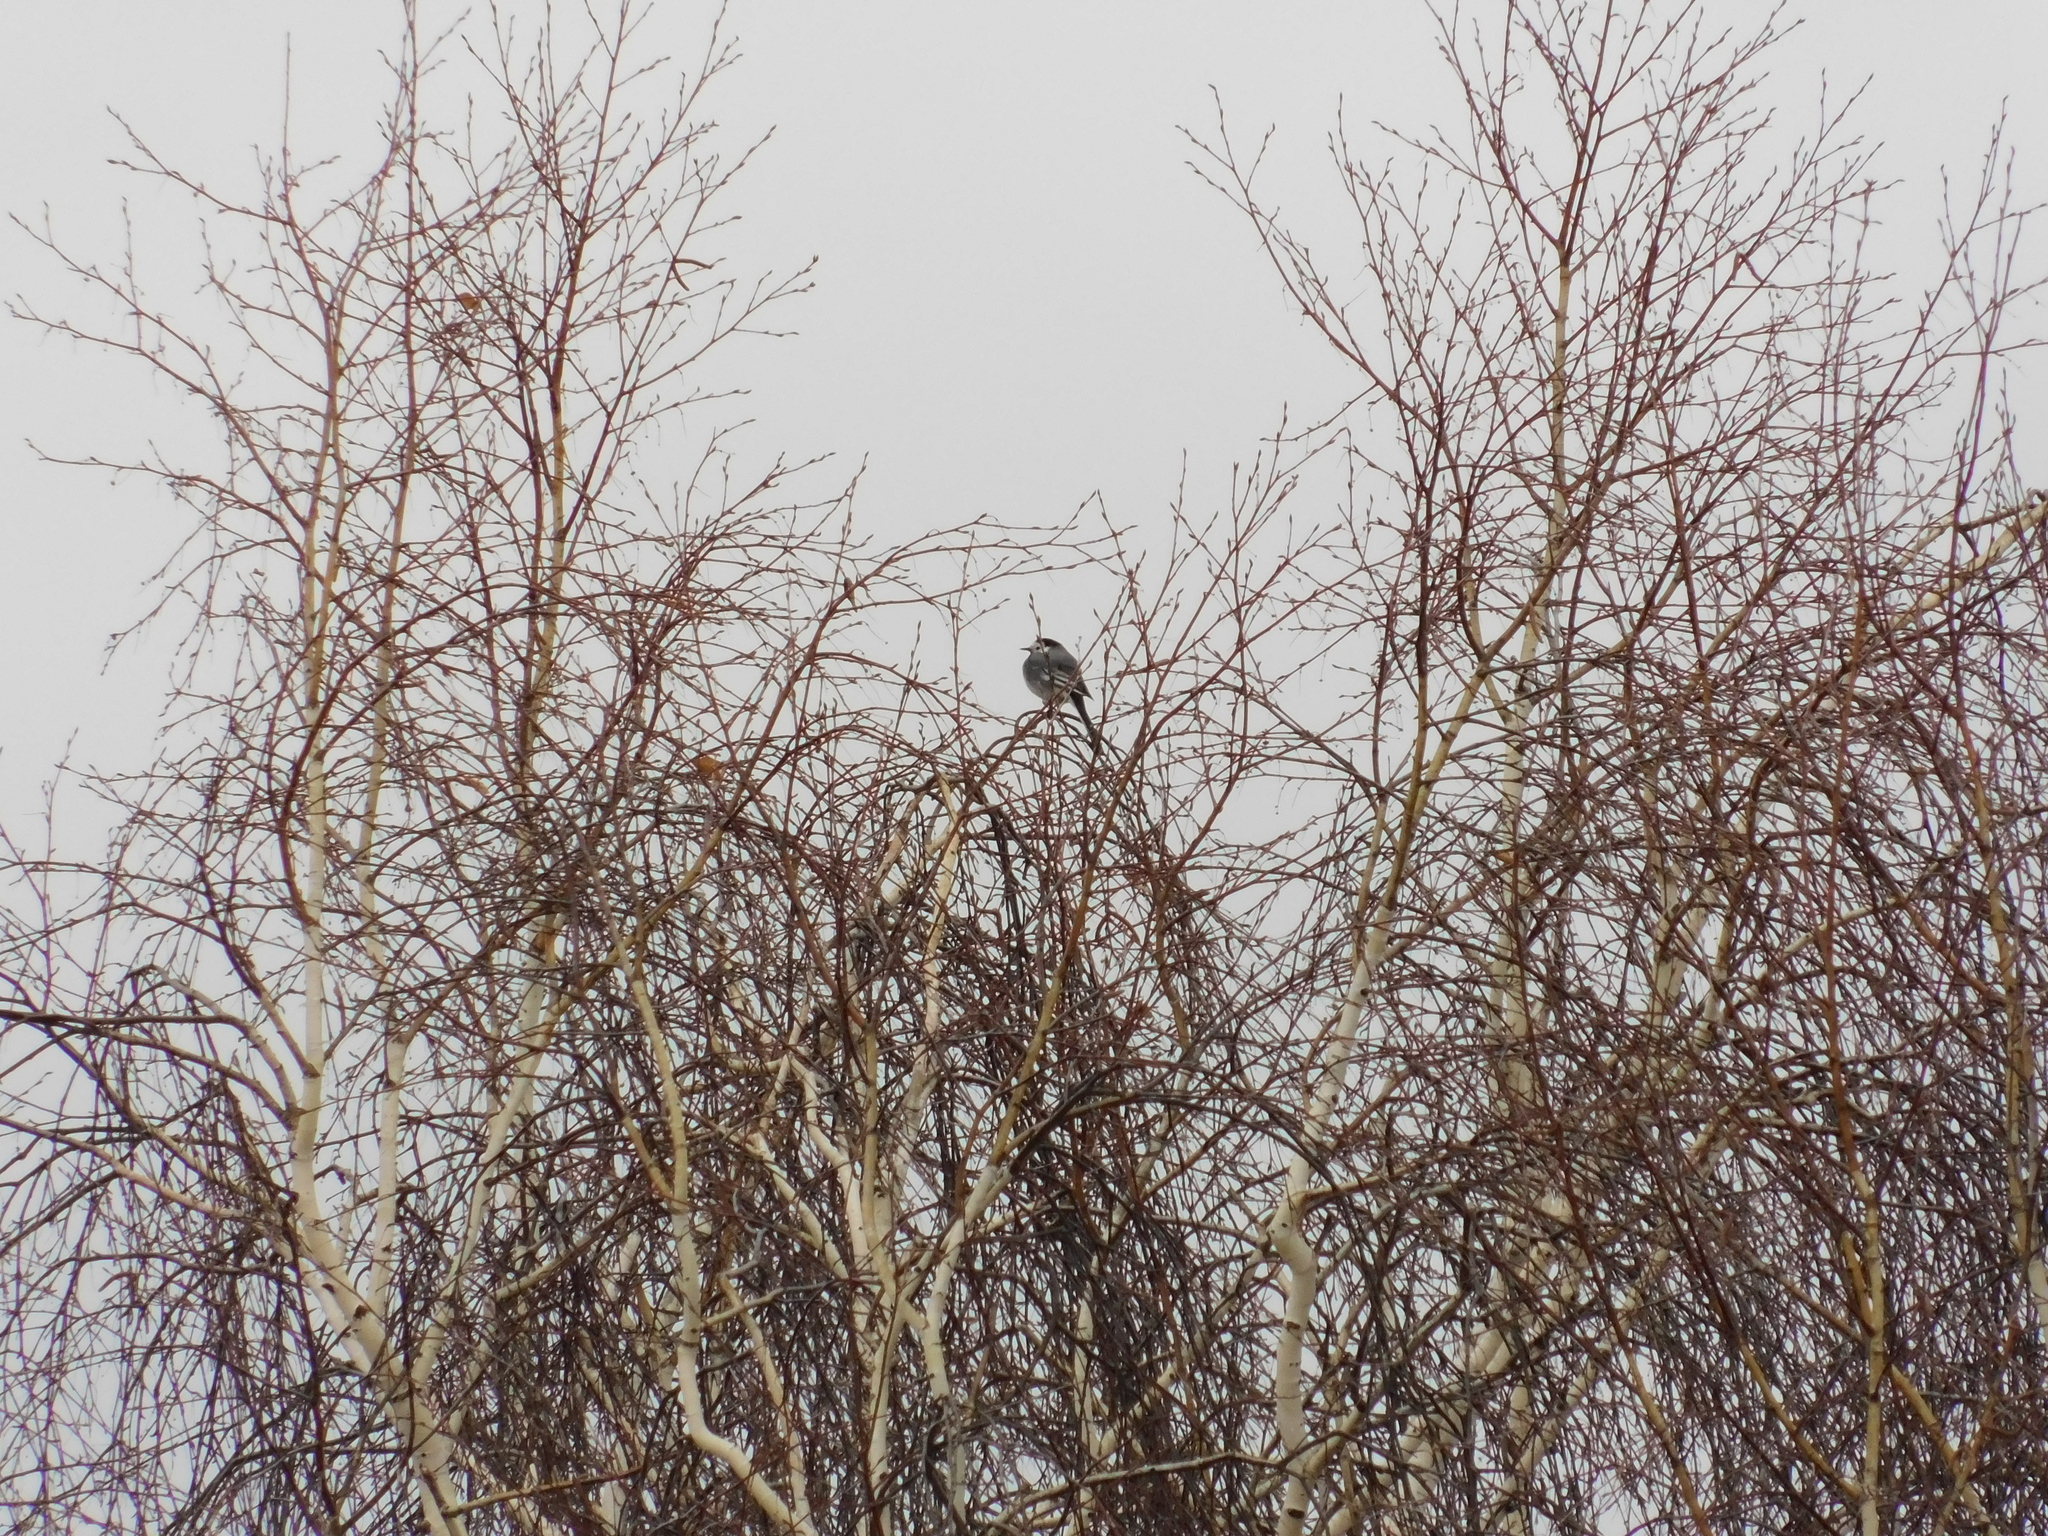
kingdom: Animalia
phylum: Chordata
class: Aves
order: Passeriformes
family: Motacillidae
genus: Motacilla
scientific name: Motacilla alba
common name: White wagtail
